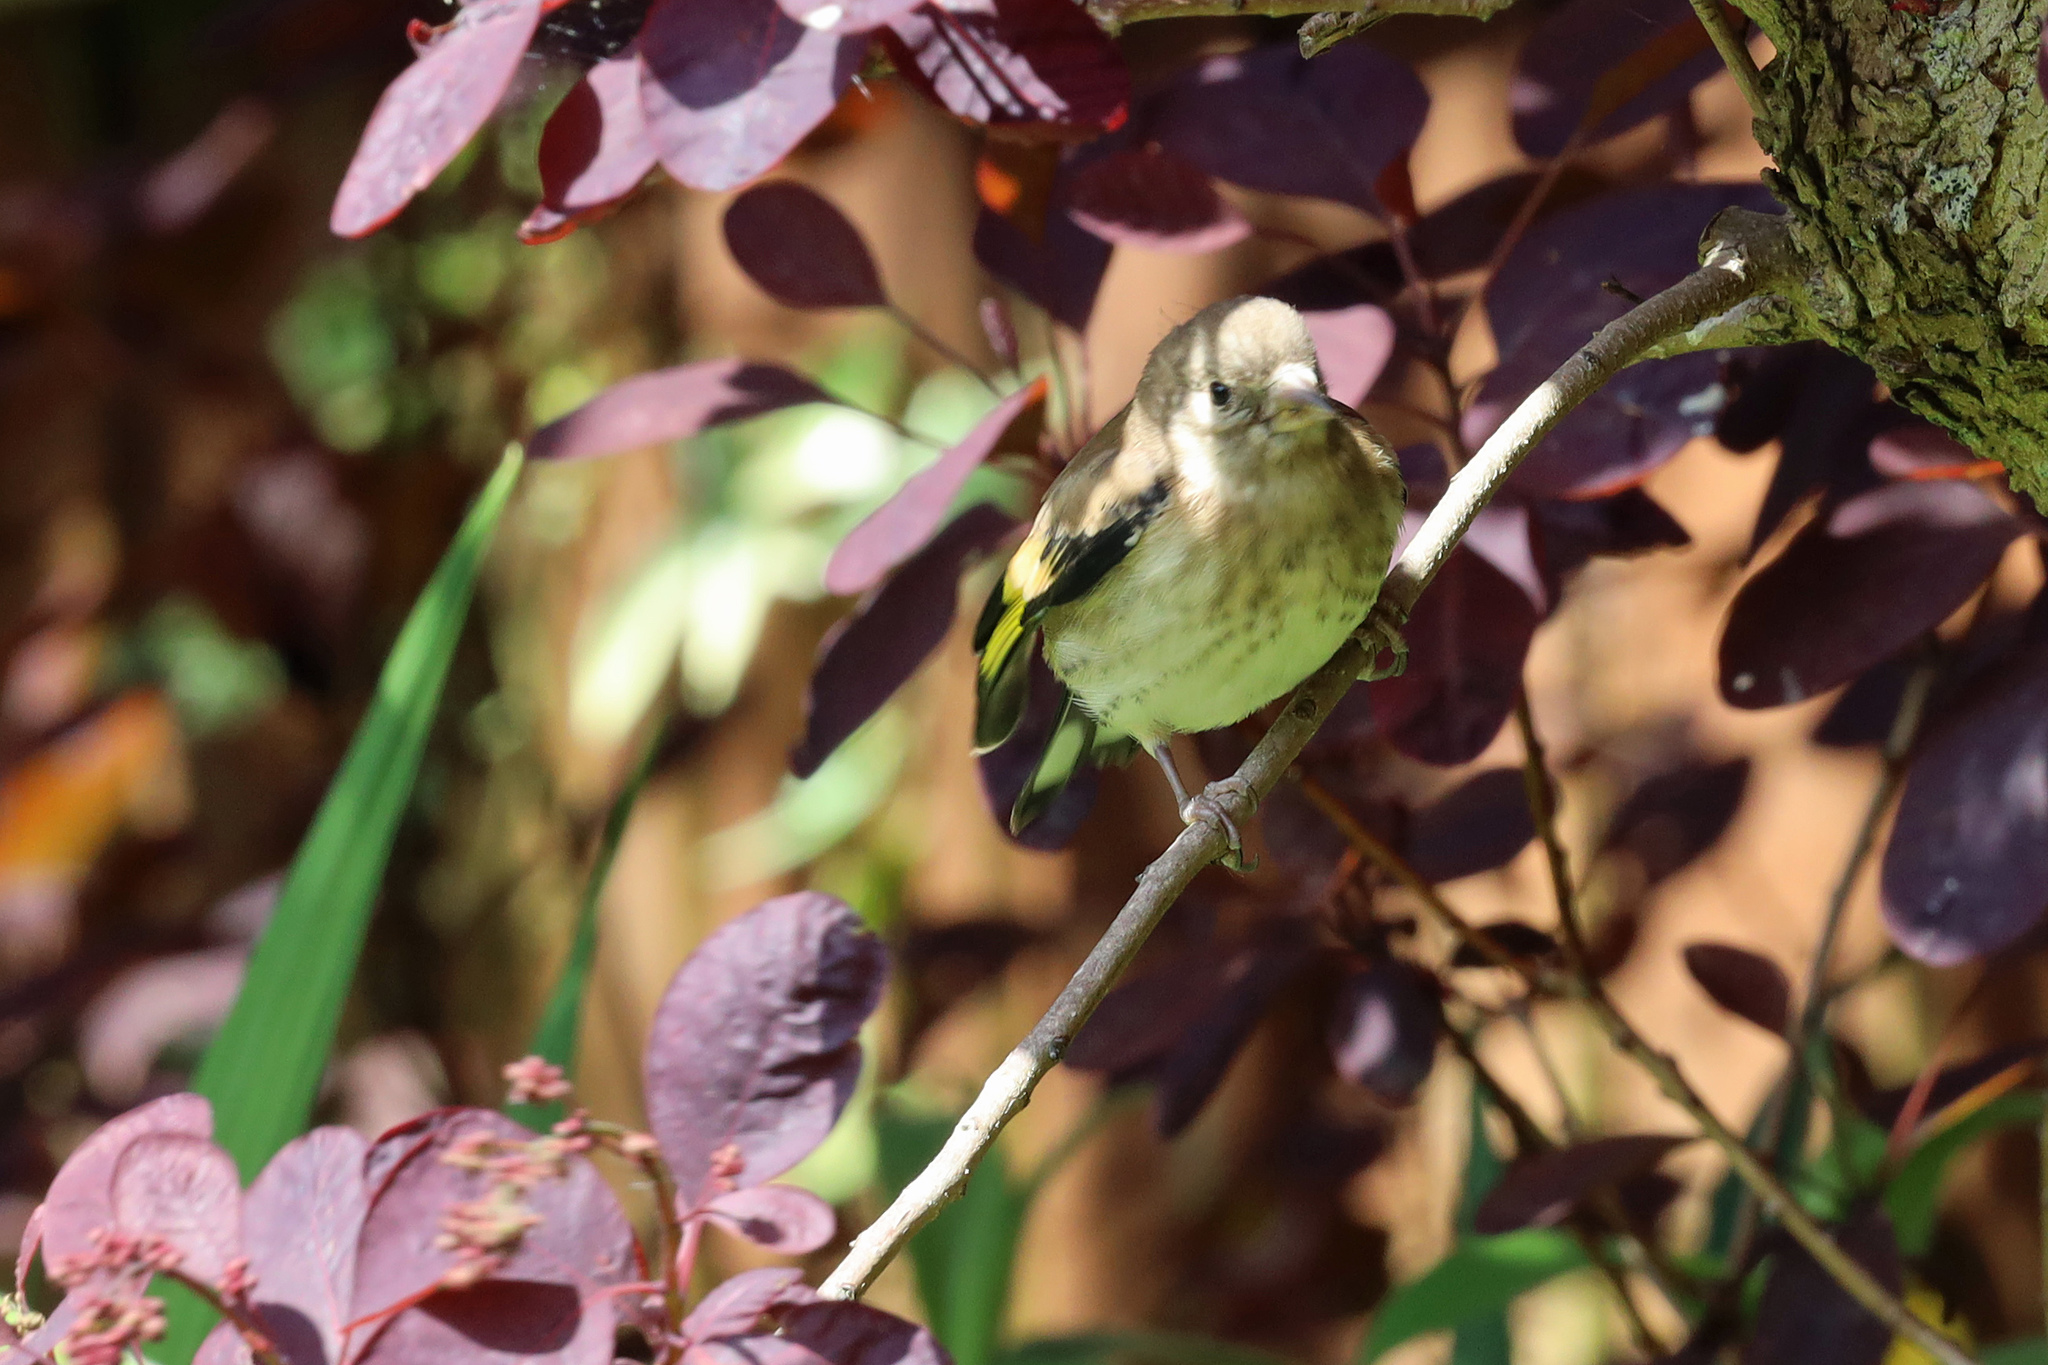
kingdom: Animalia
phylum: Chordata
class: Aves
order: Passeriformes
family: Fringillidae
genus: Carduelis
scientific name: Carduelis carduelis
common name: European goldfinch
